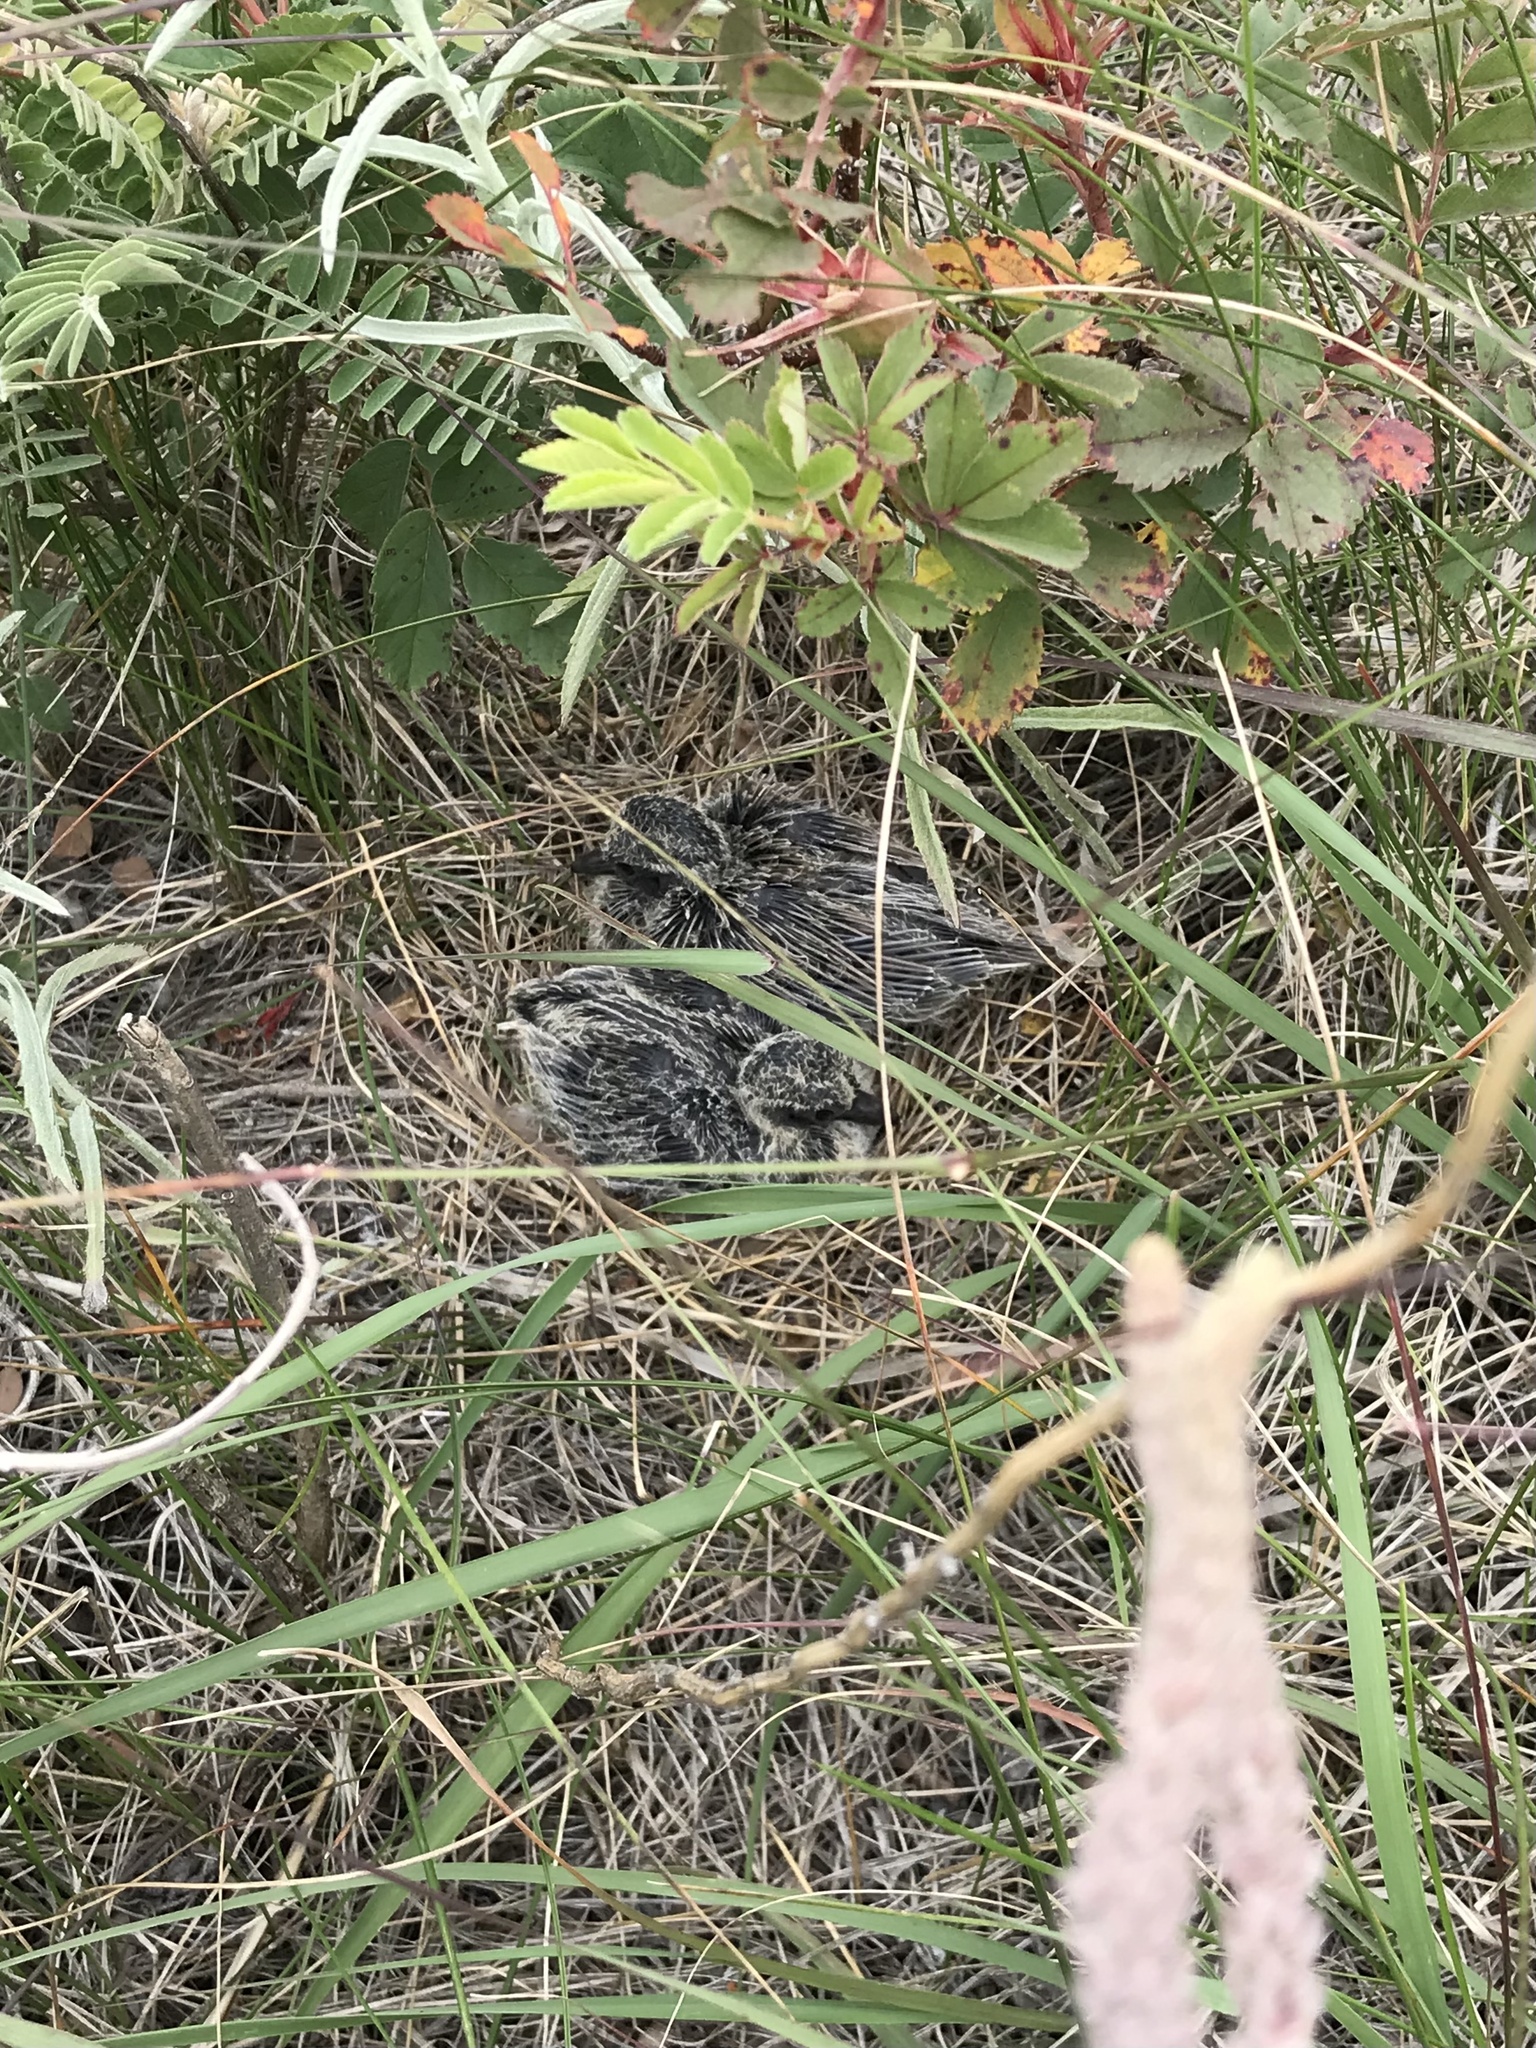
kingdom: Animalia
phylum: Chordata
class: Aves
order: Columbiformes
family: Columbidae
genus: Zenaida
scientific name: Zenaida macroura
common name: Mourning dove
